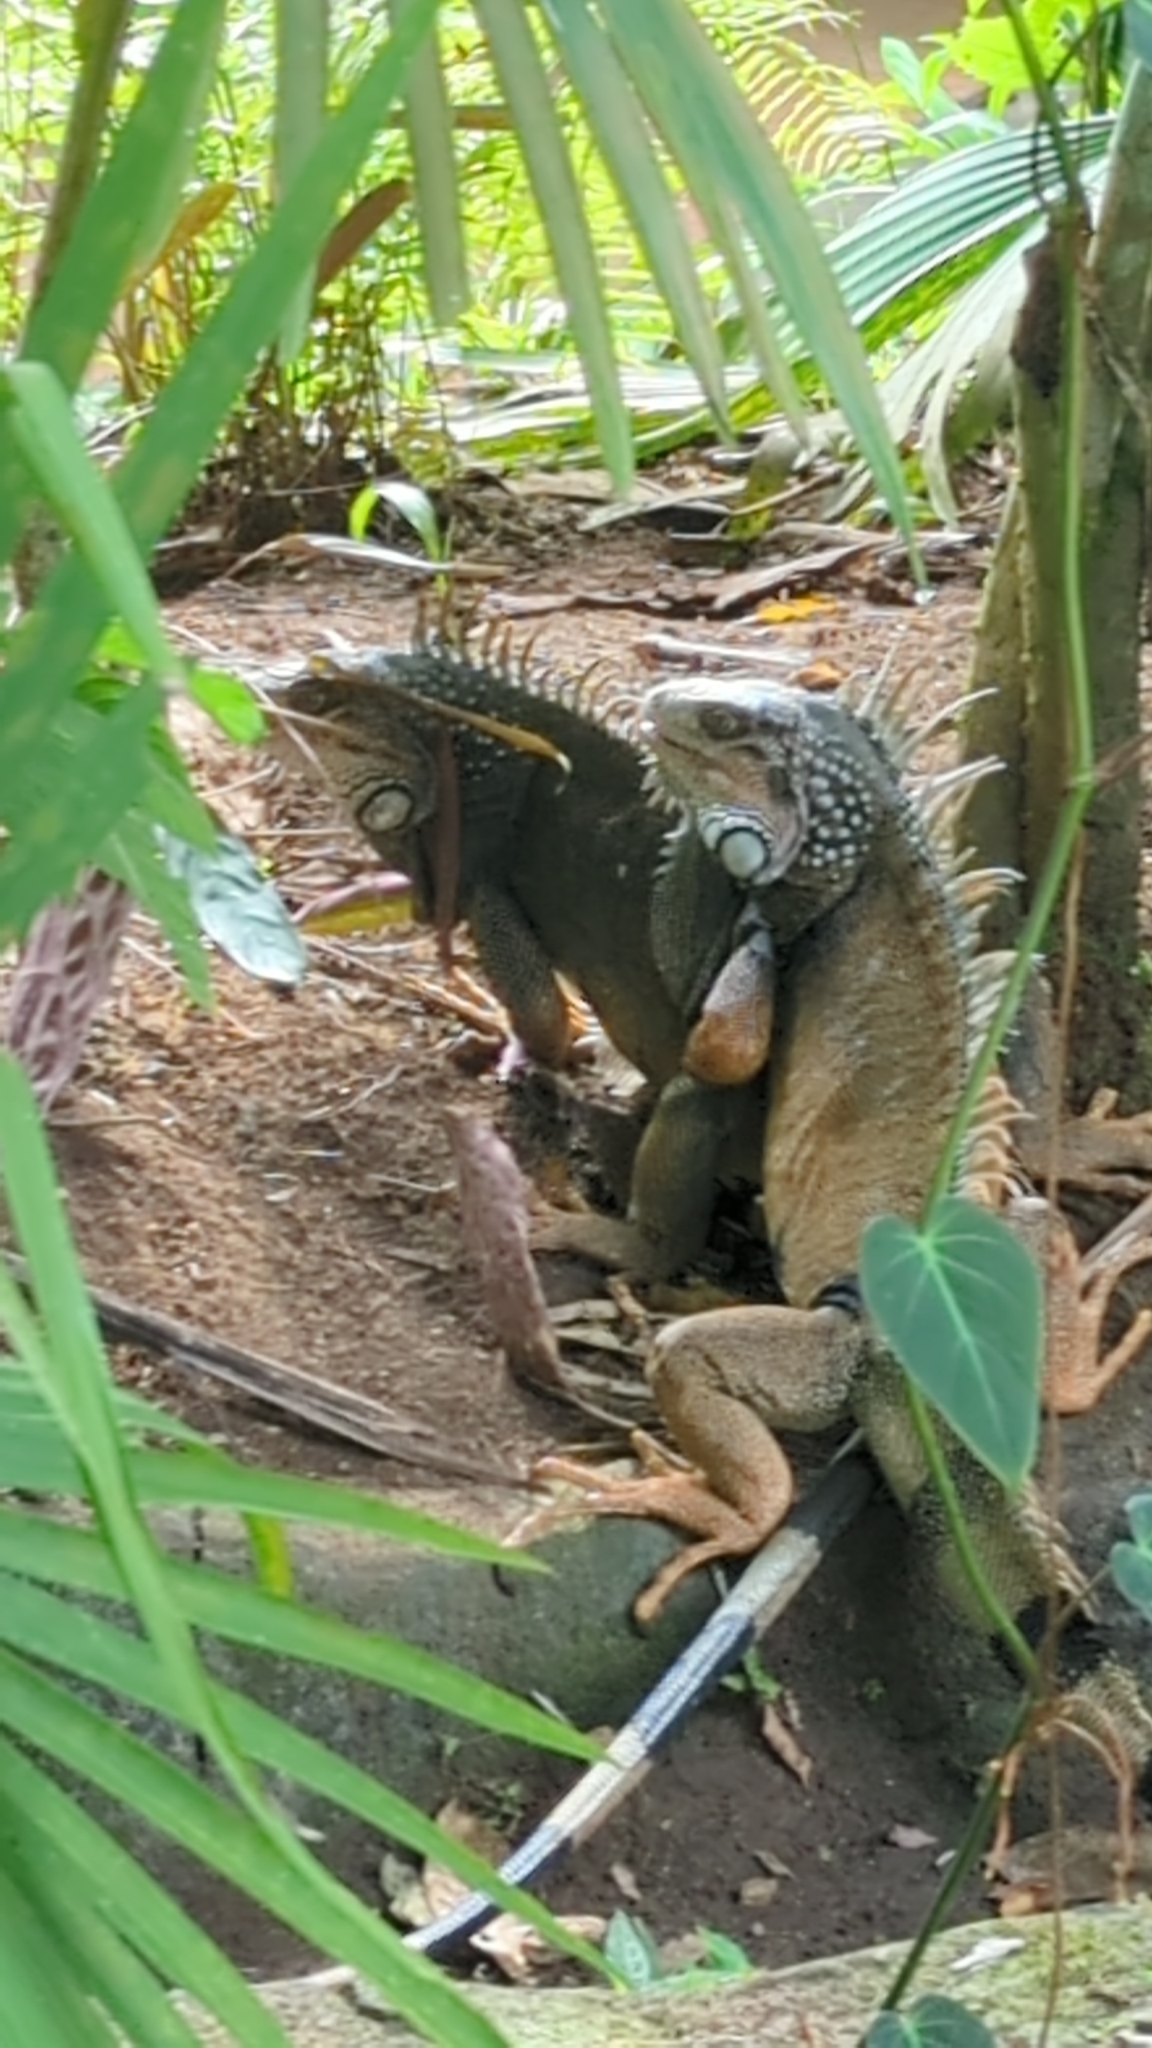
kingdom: Animalia
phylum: Chordata
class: Squamata
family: Iguanidae
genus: Iguana
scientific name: Iguana iguana
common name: Green iguana
